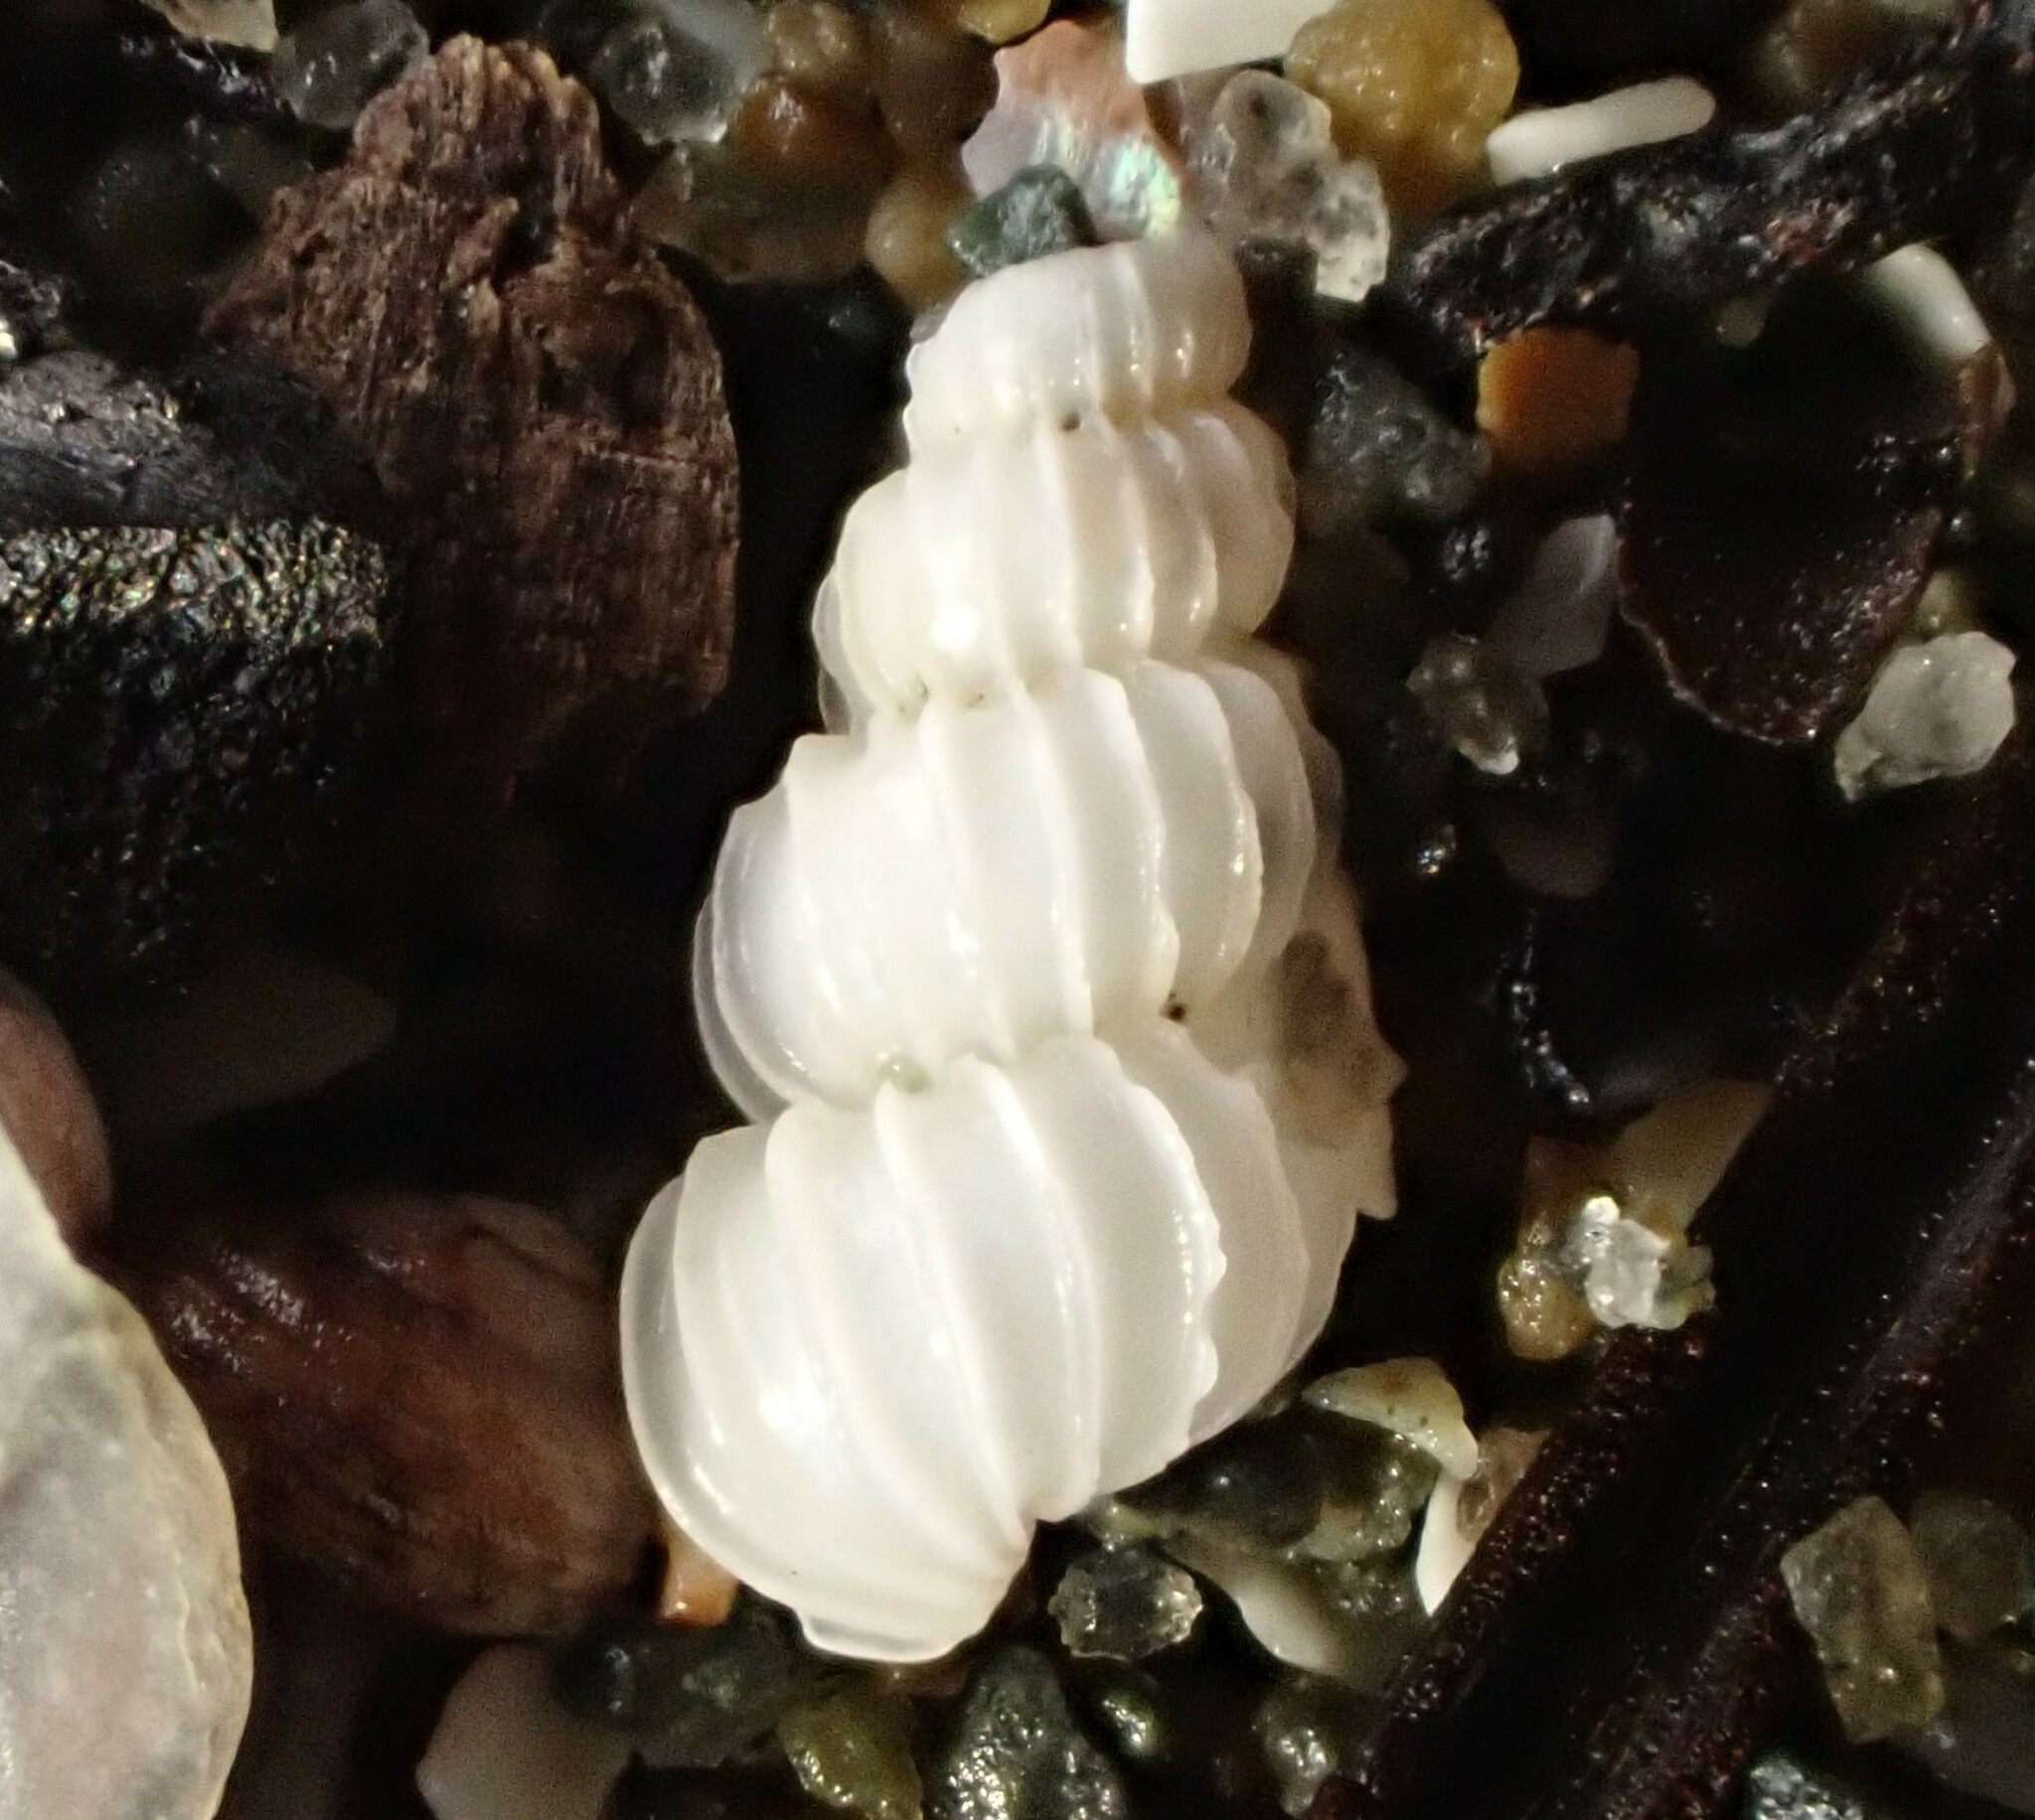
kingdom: Animalia
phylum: Mollusca
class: Gastropoda
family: Epitoniidae
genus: Epitonium
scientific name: Epitonium jukesianum
